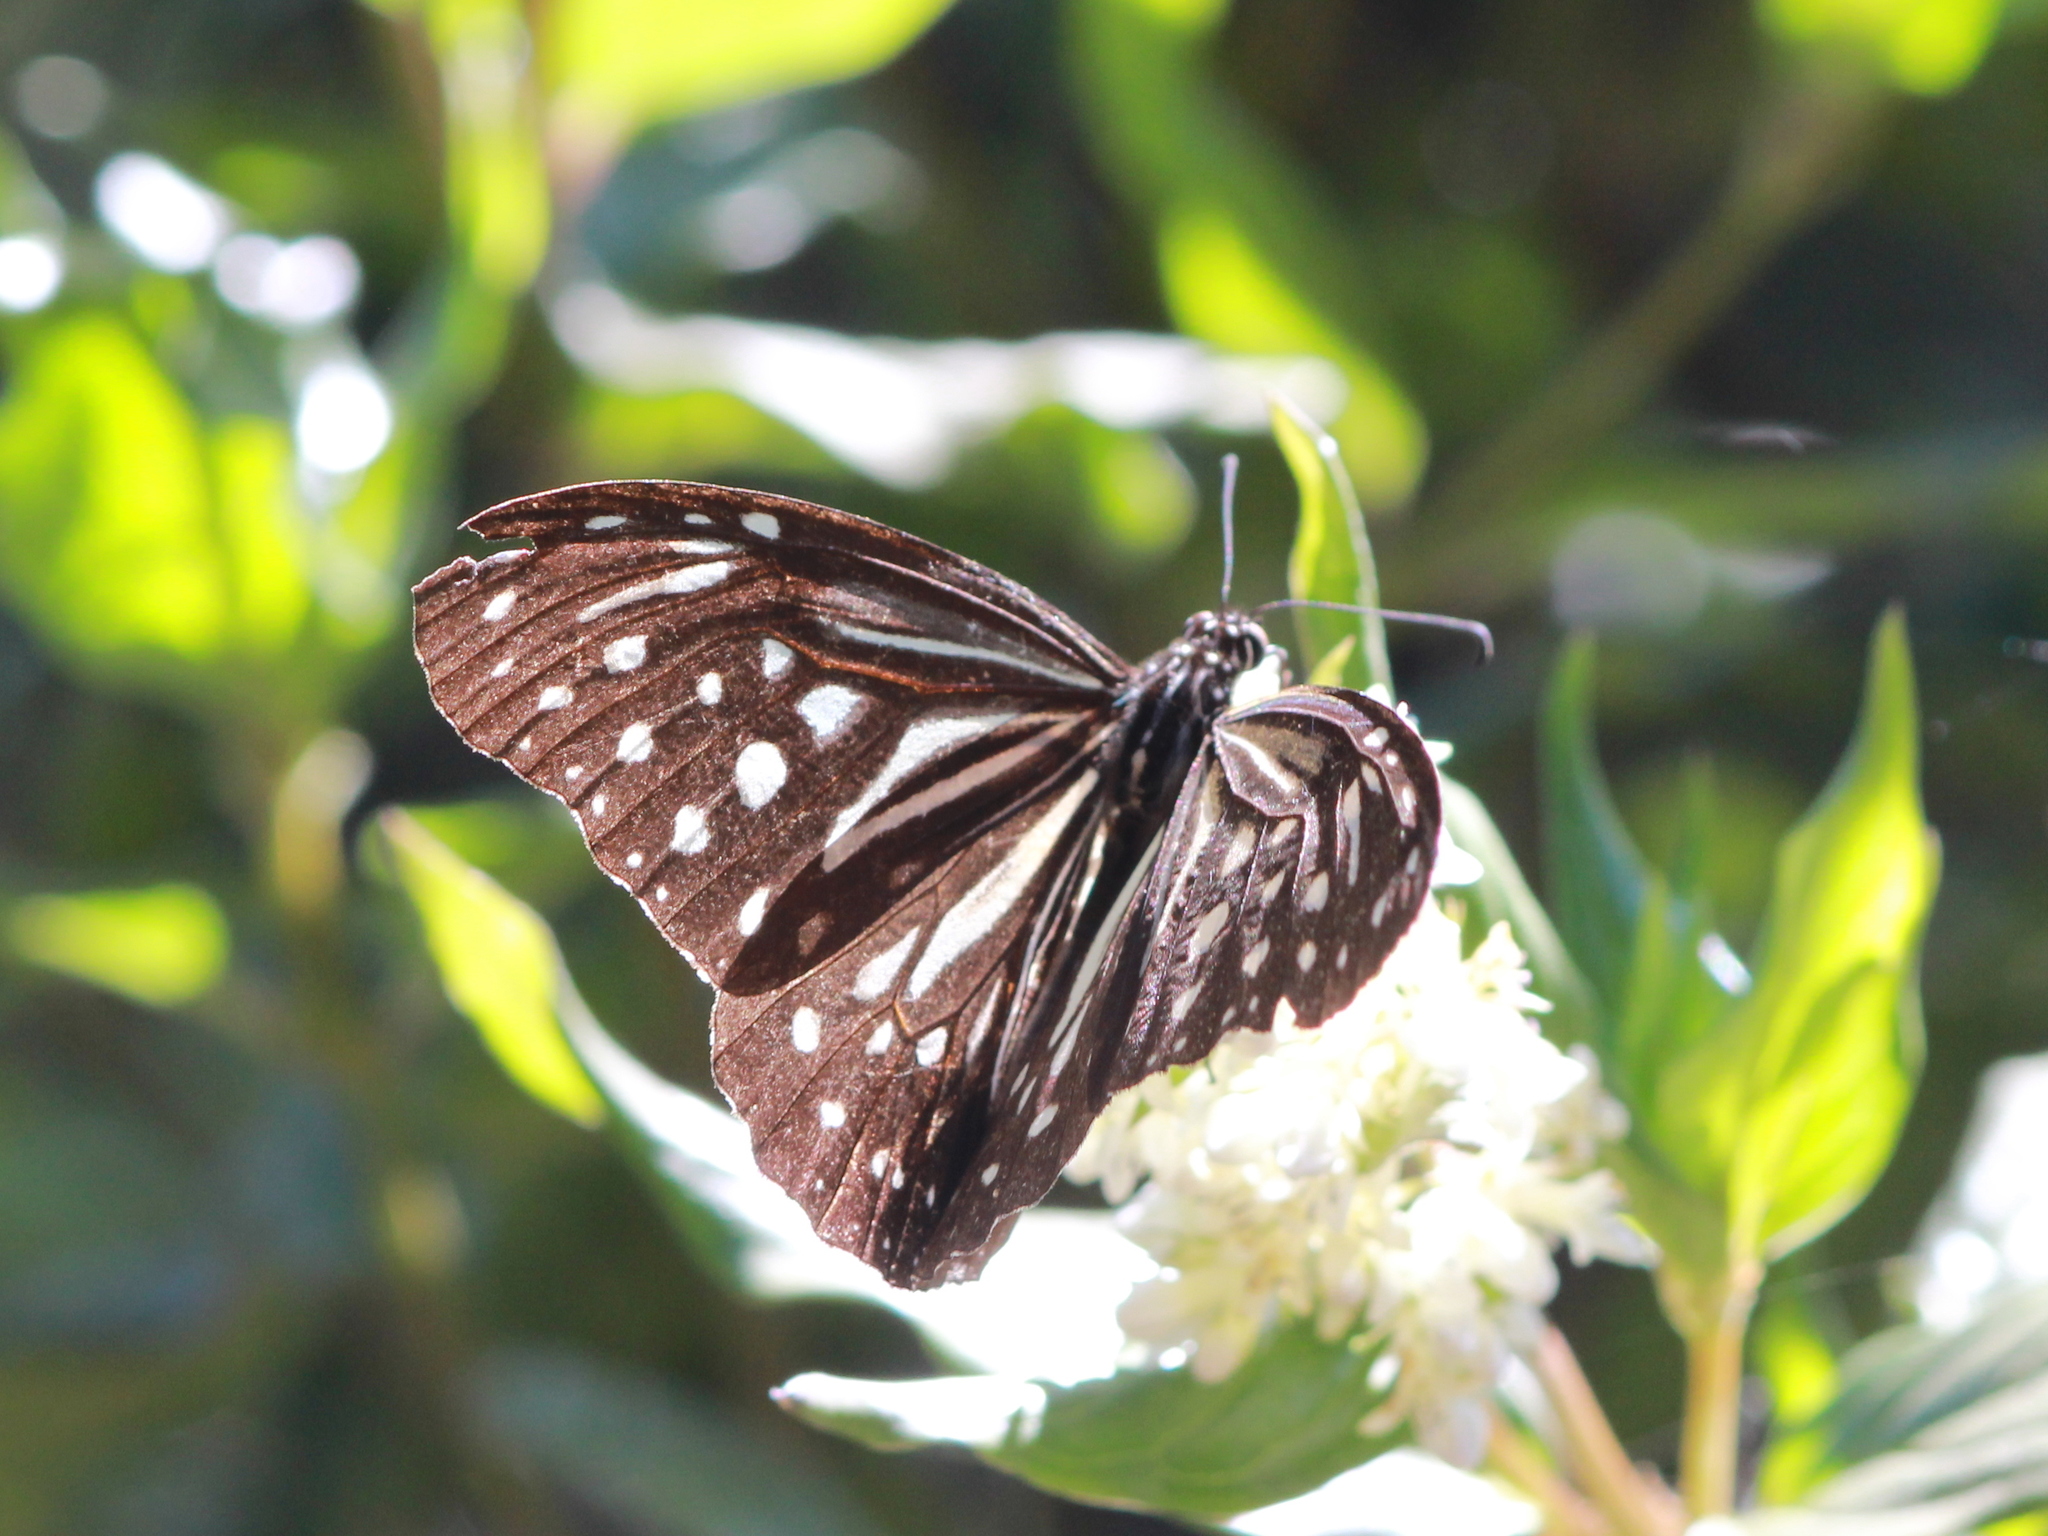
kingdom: Animalia
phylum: Arthropoda
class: Insecta
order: Lepidoptera
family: Nymphalidae
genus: Parantica
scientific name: Parantica nilgiriensis
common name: Nilgiri tiger
